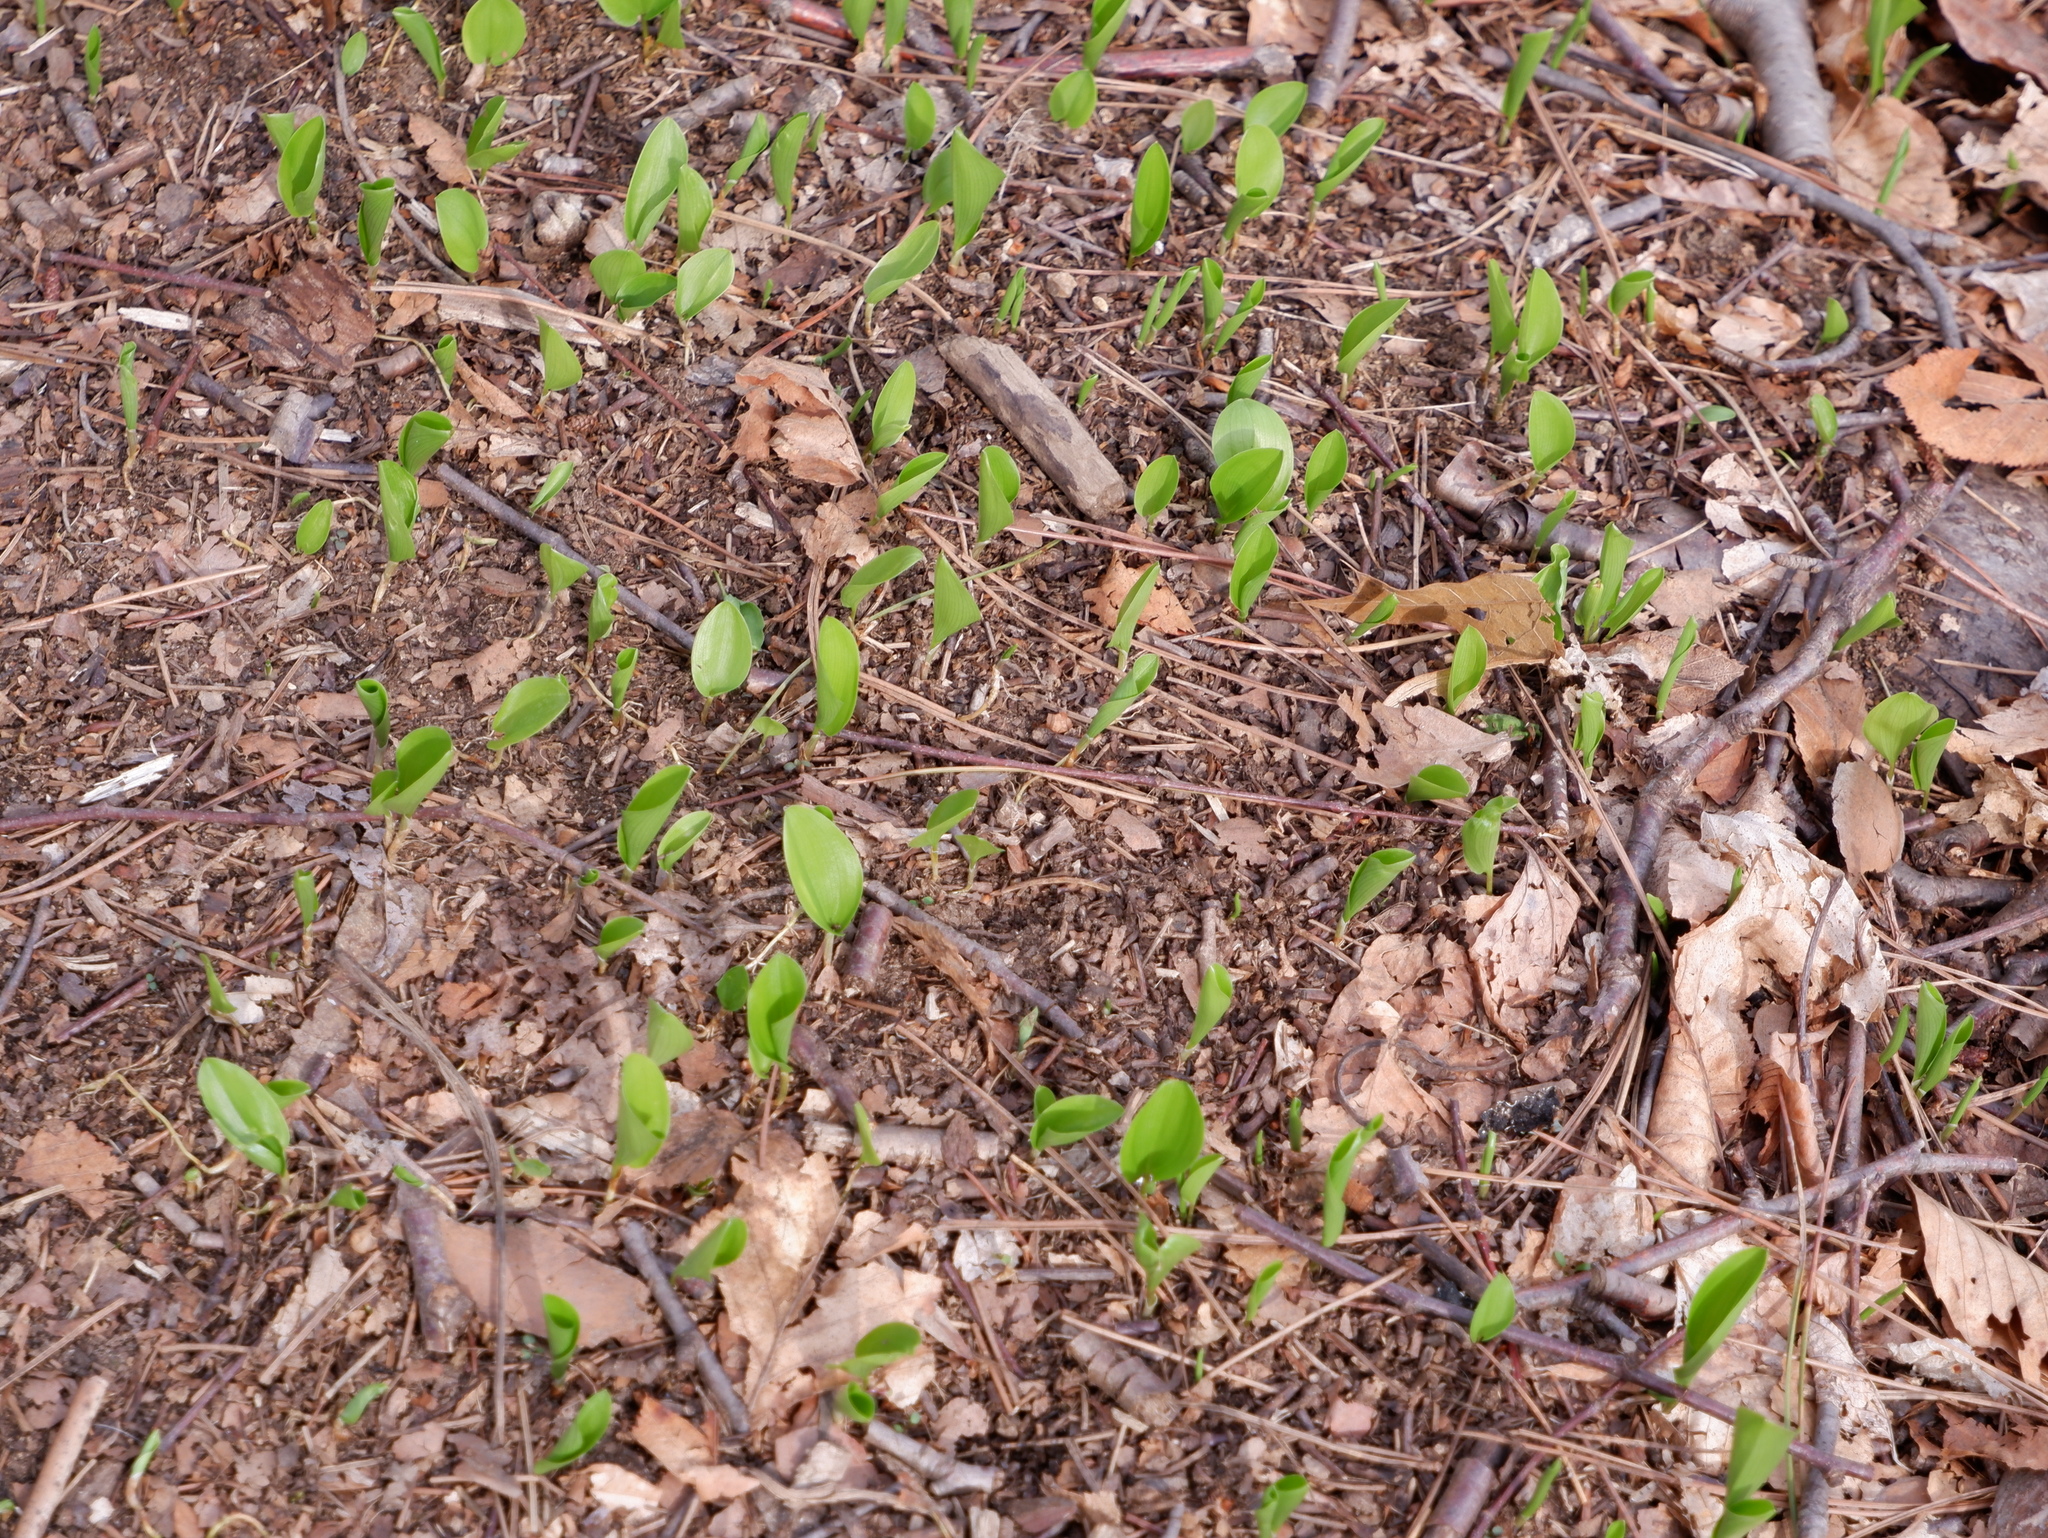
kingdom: Plantae
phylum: Tracheophyta
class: Liliopsida
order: Asparagales
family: Asparagaceae
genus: Maianthemum
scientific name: Maianthemum canadense
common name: False lily-of-the-valley
